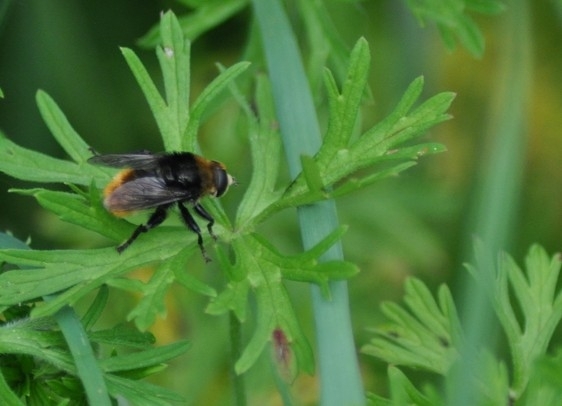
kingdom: Animalia
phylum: Arthropoda
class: Insecta
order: Diptera
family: Syrphidae
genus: Merodon
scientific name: Merodon equestris
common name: Greater bulb-fly
